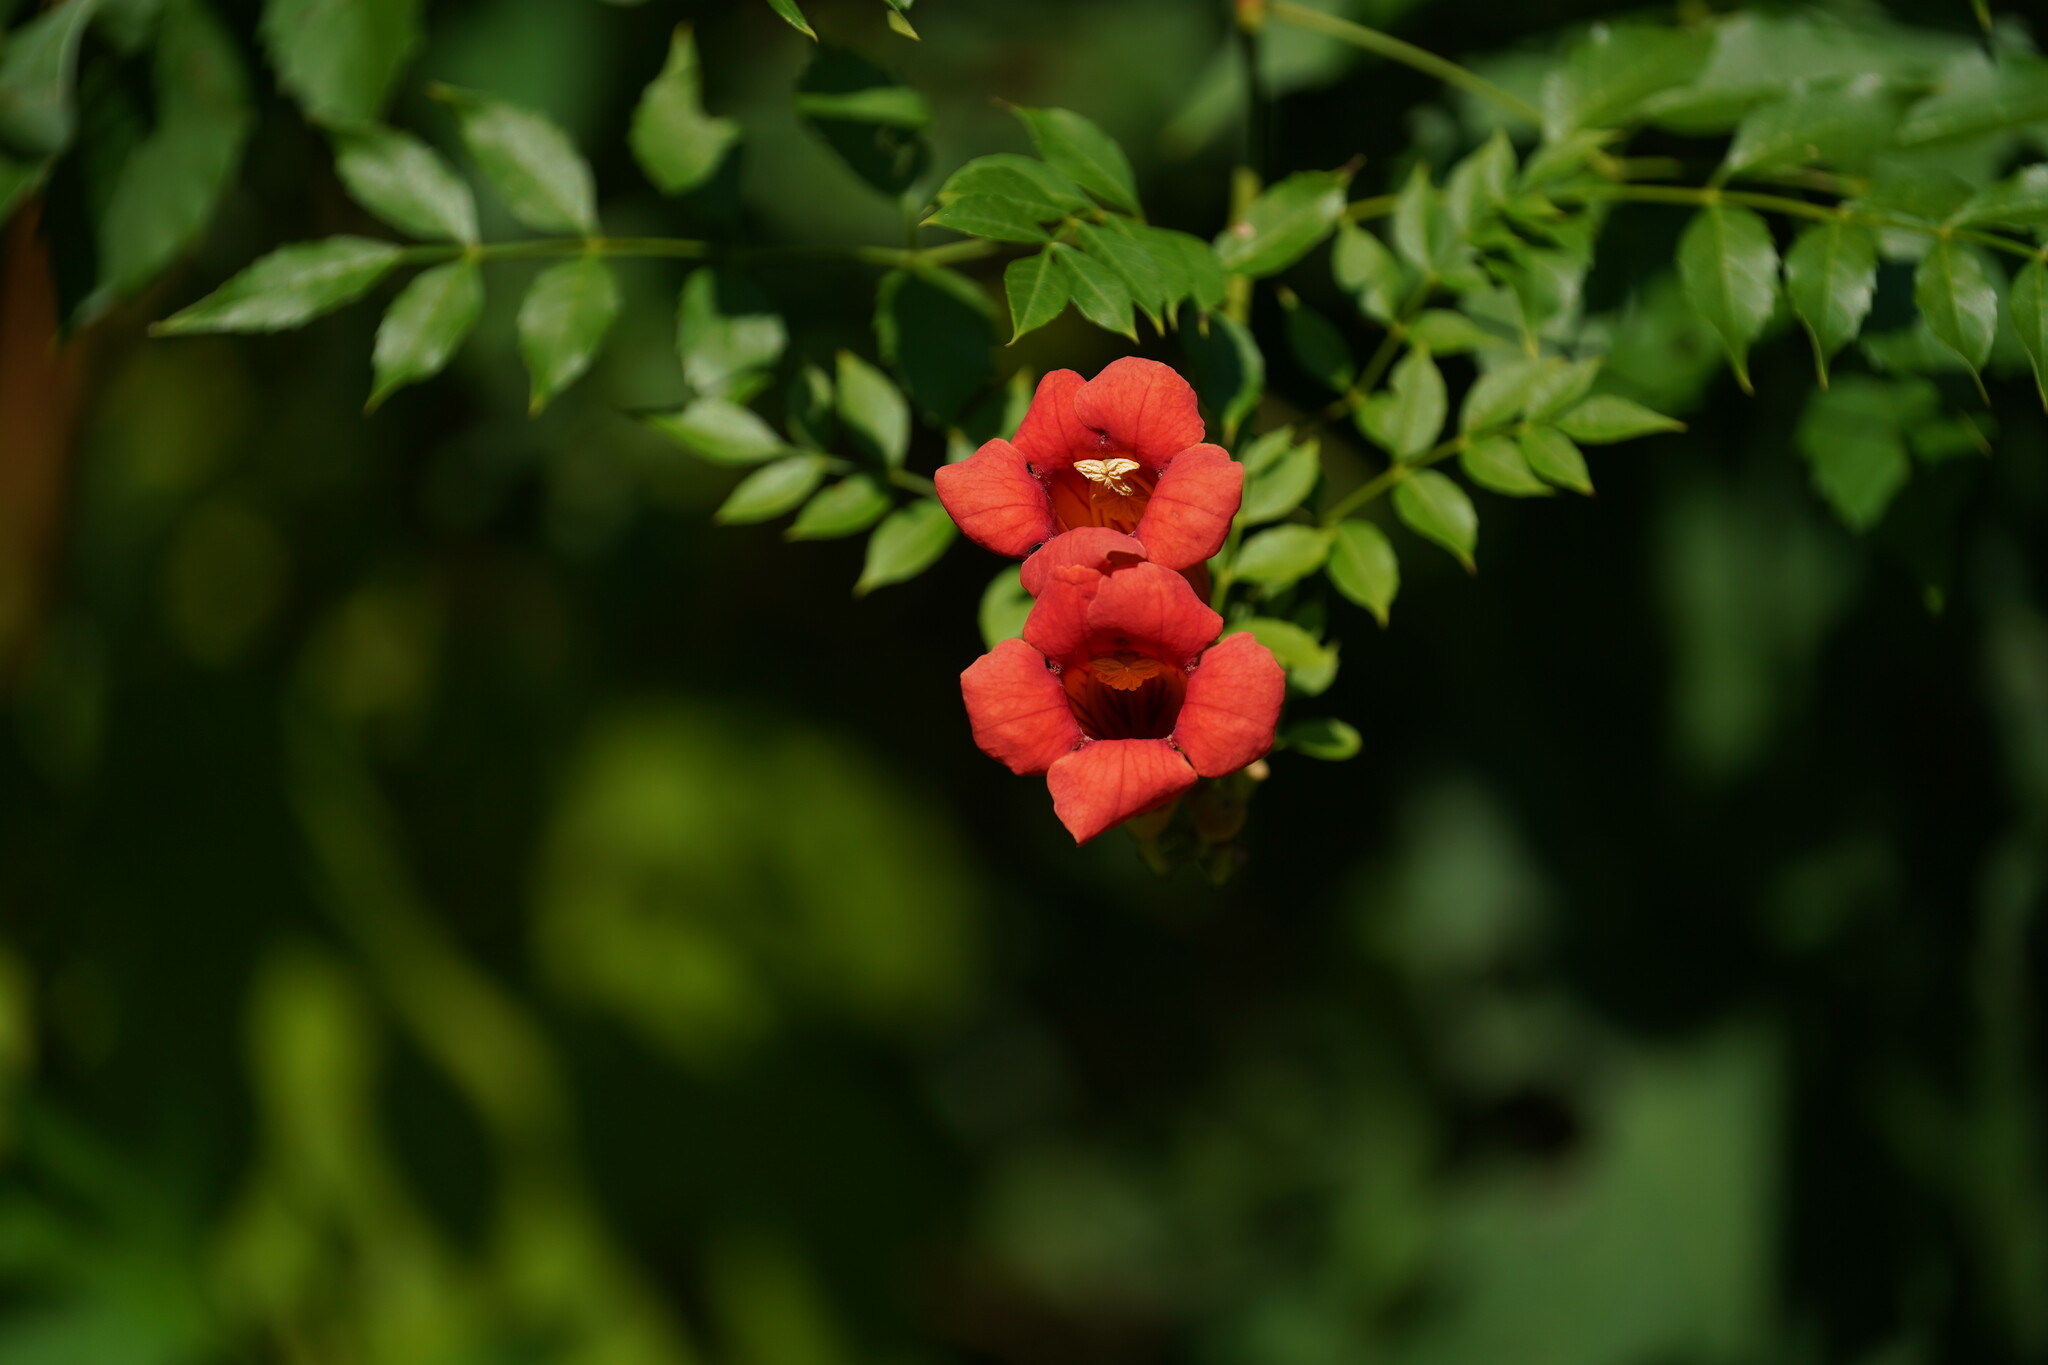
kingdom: Plantae
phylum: Tracheophyta
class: Magnoliopsida
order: Lamiales
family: Bignoniaceae
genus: Campsis
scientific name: Campsis radicans
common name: Trumpet-creeper
